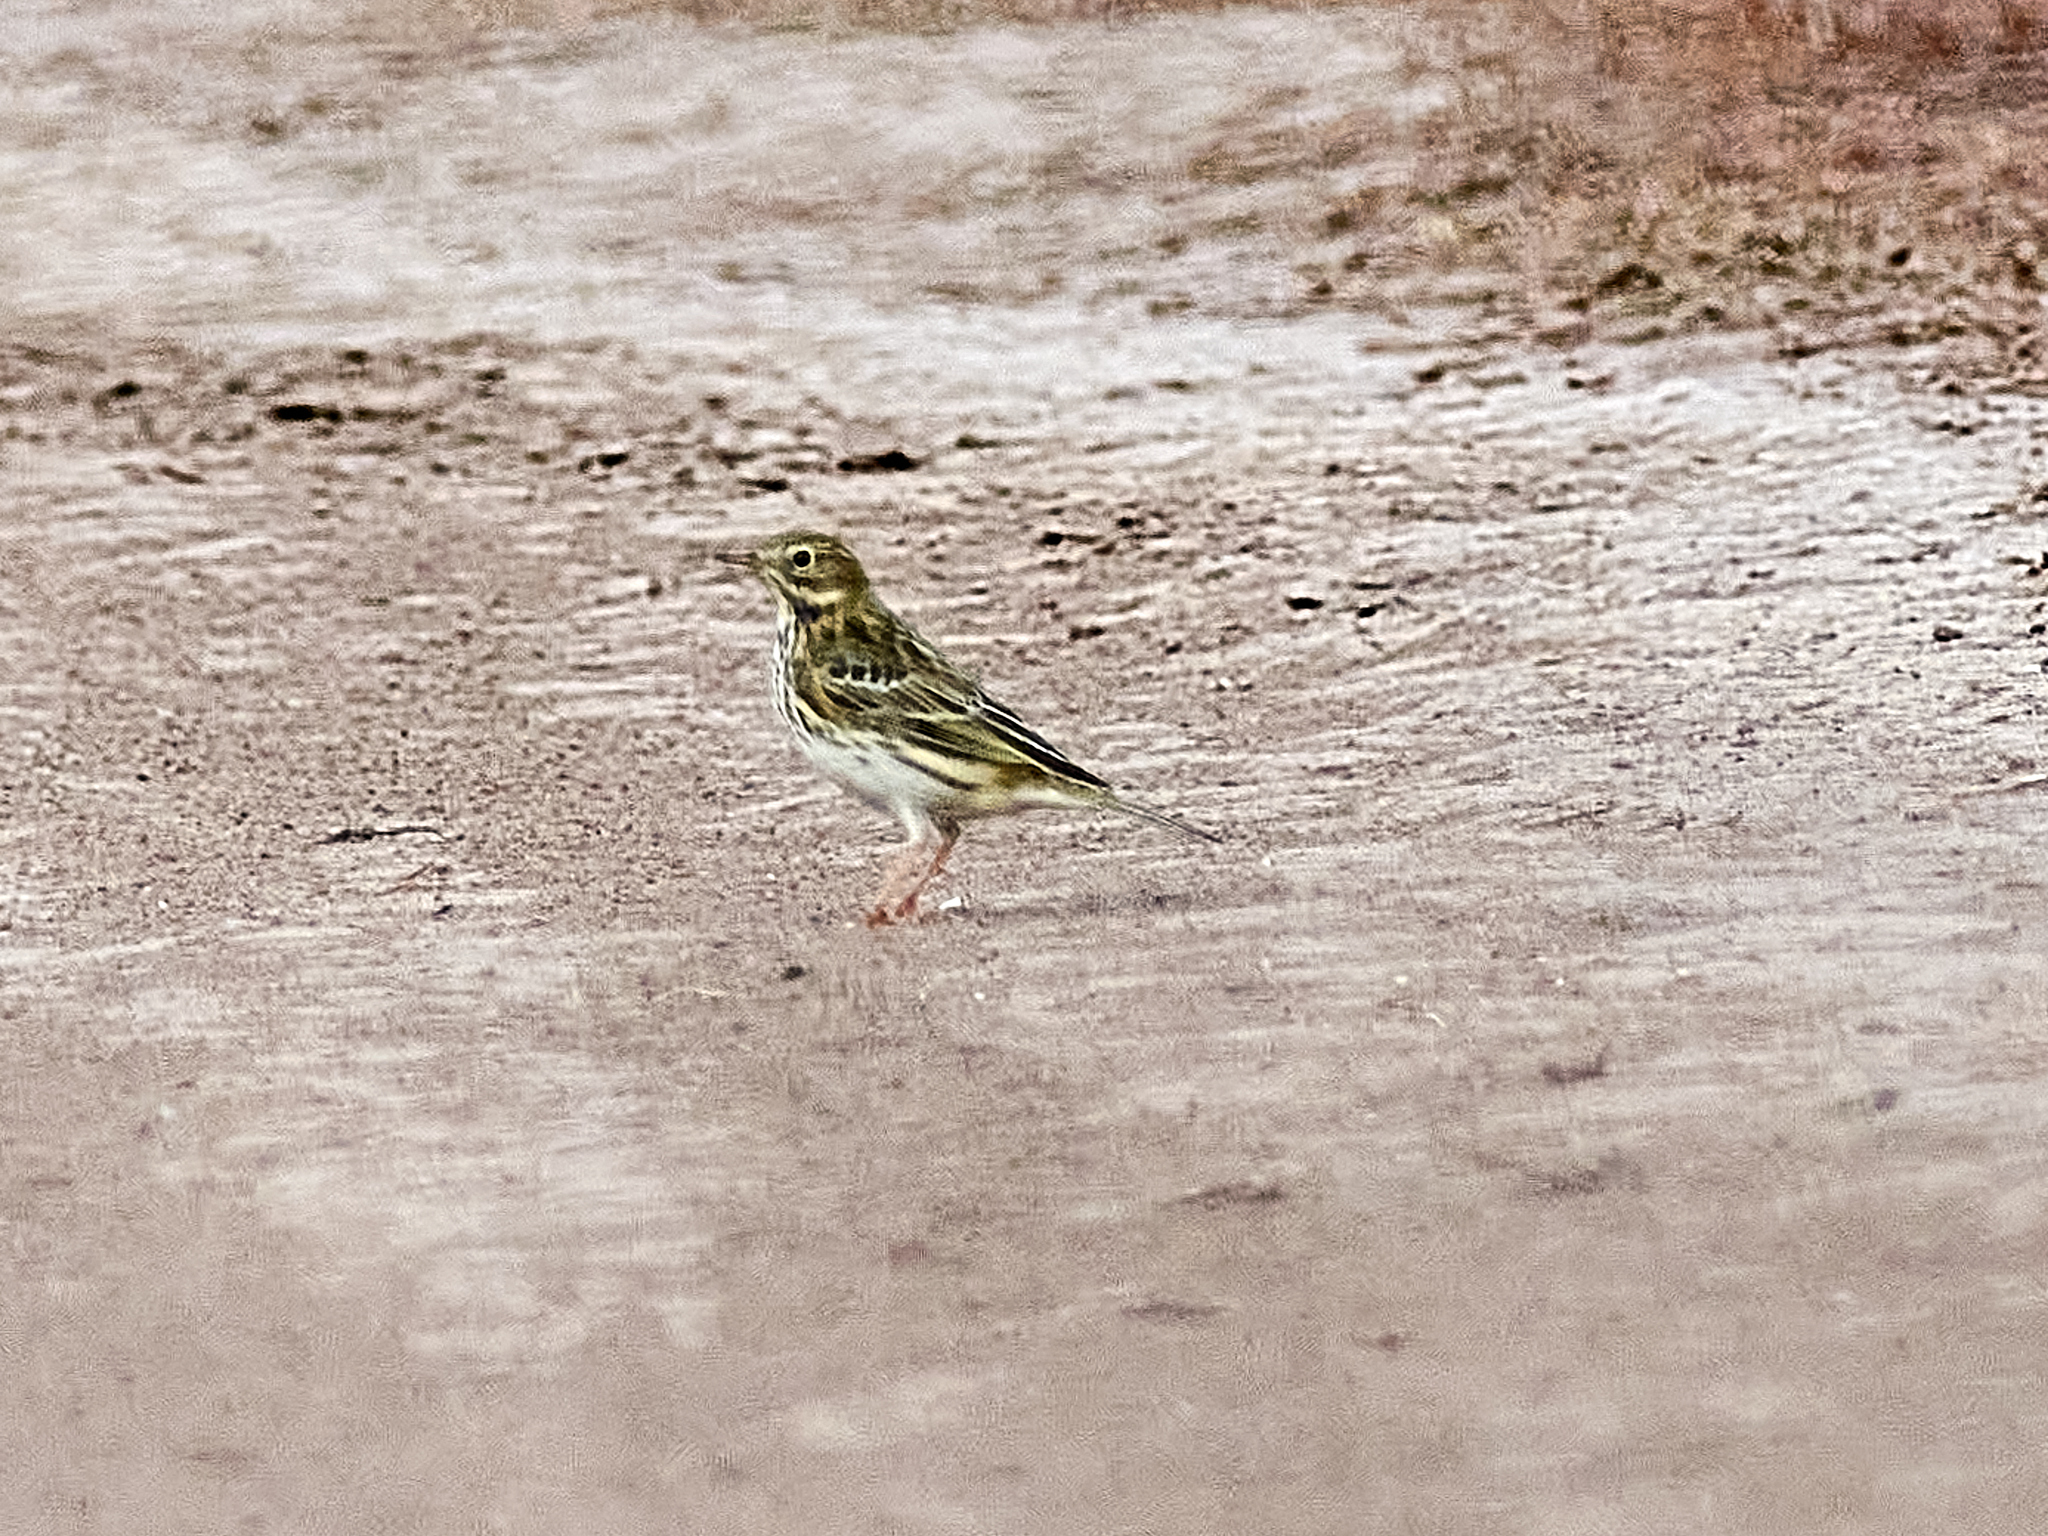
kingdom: Animalia
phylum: Chordata
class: Aves
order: Passeriformes
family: Motacillidae
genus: Anthus
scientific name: Anthus cervinus
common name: Red-throated pipit
